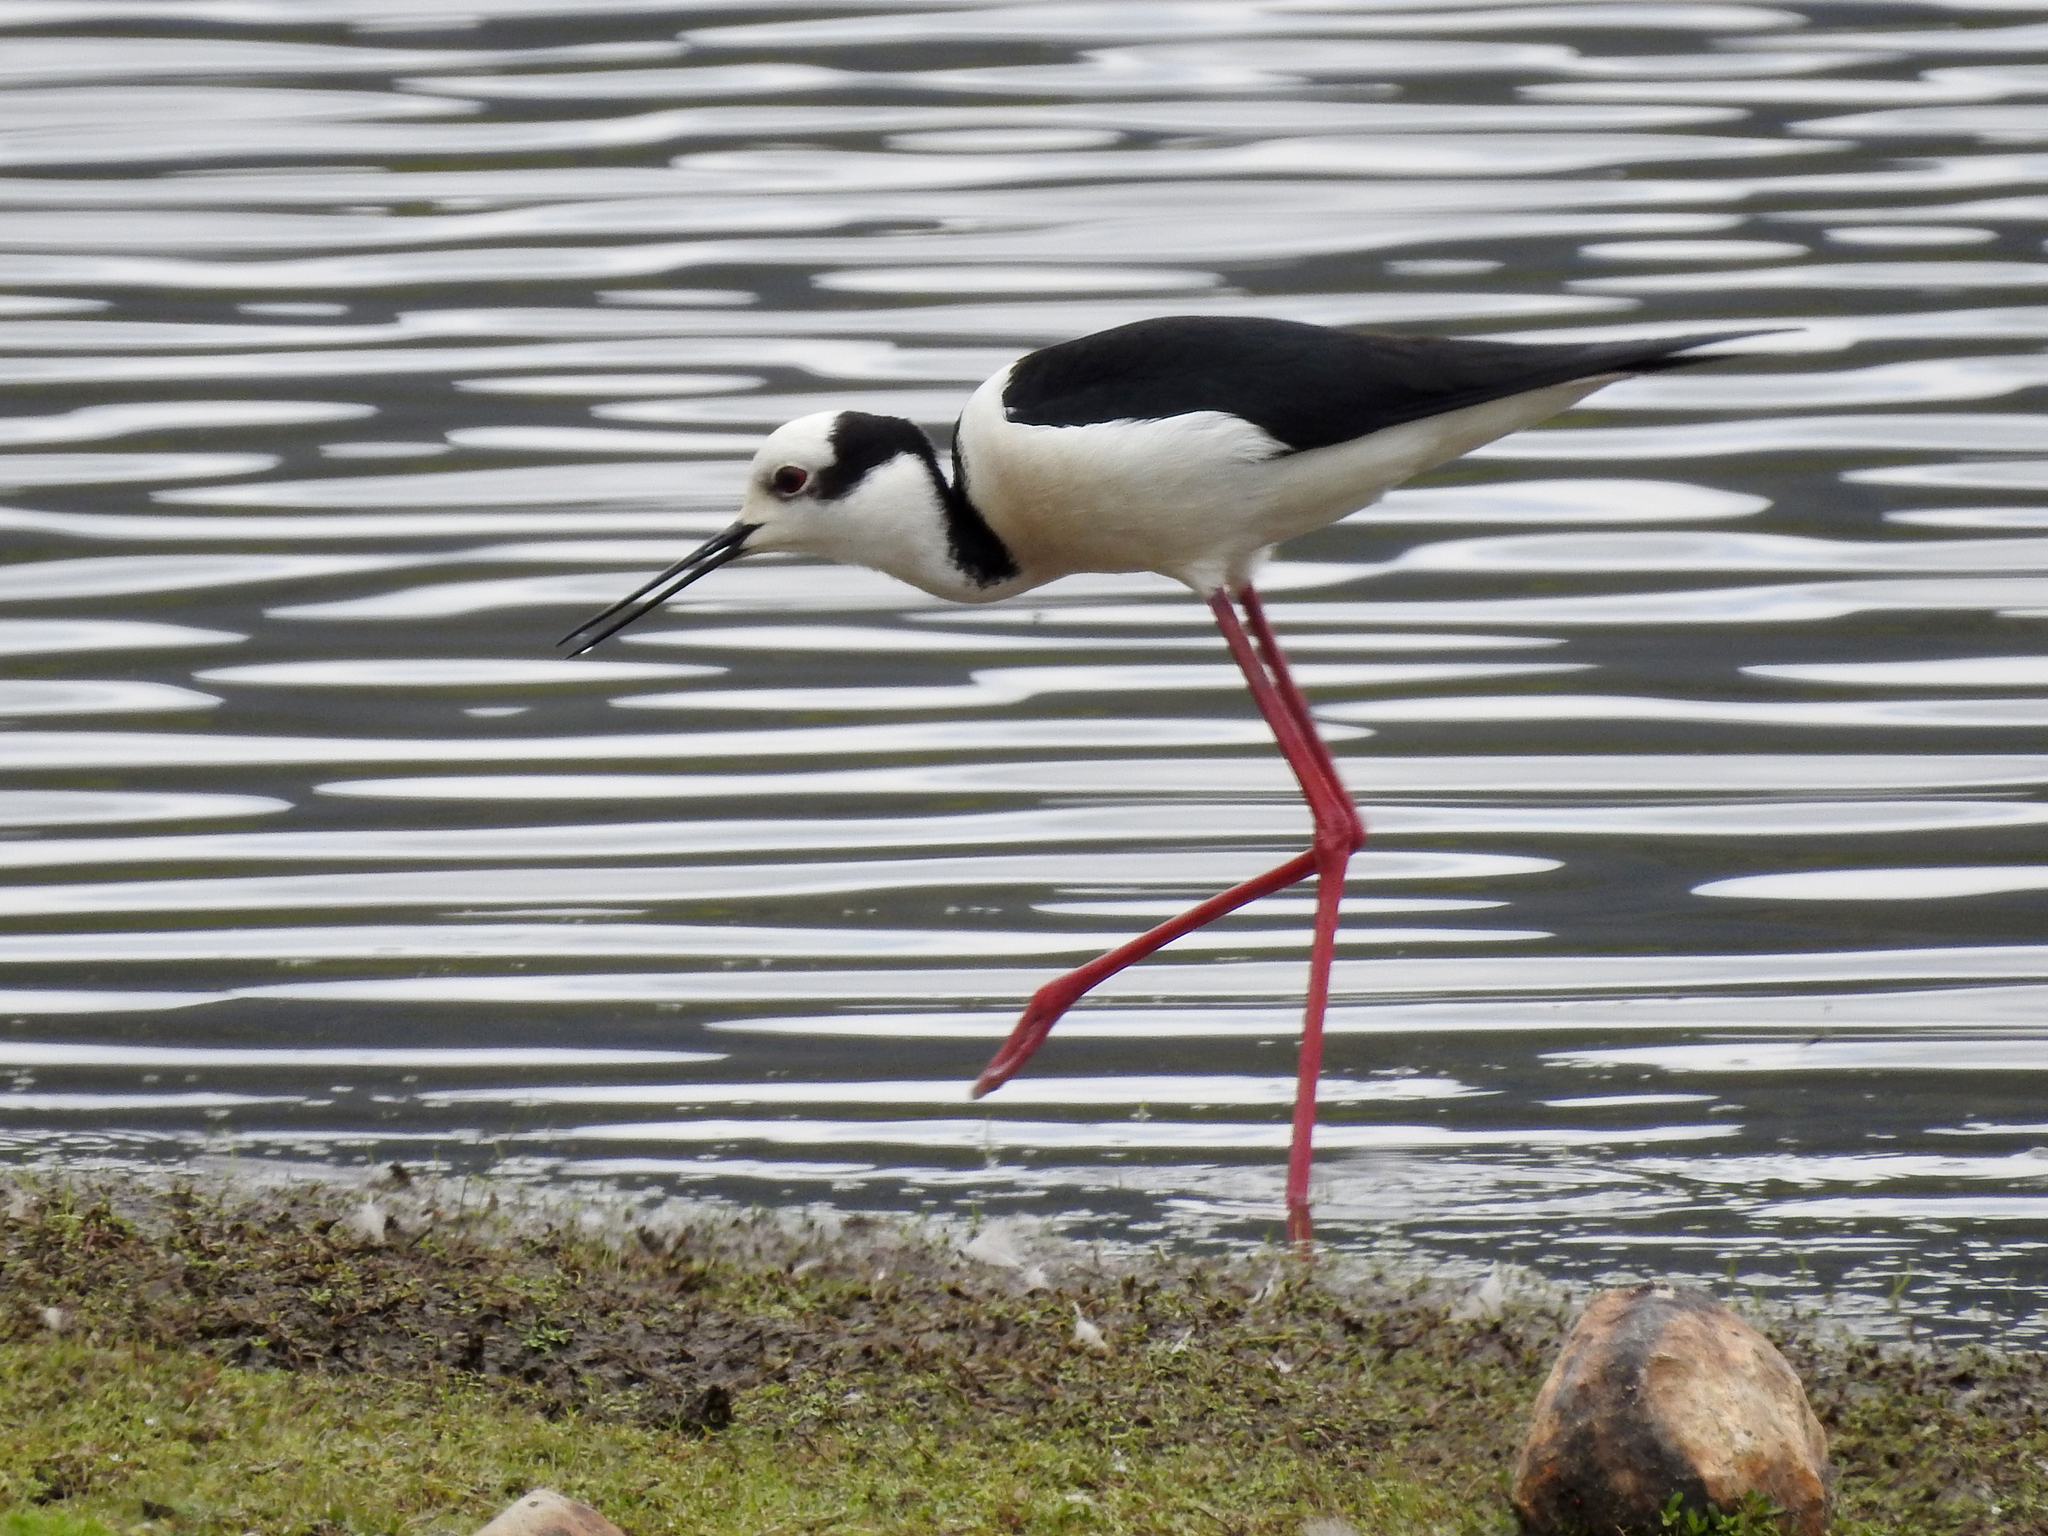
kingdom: Animalia
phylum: Chordata
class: Aves
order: Charadriiformes
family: Recurvirostridae
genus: Himantopus
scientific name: Himantopus mexicanus
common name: Black-necked stilt
